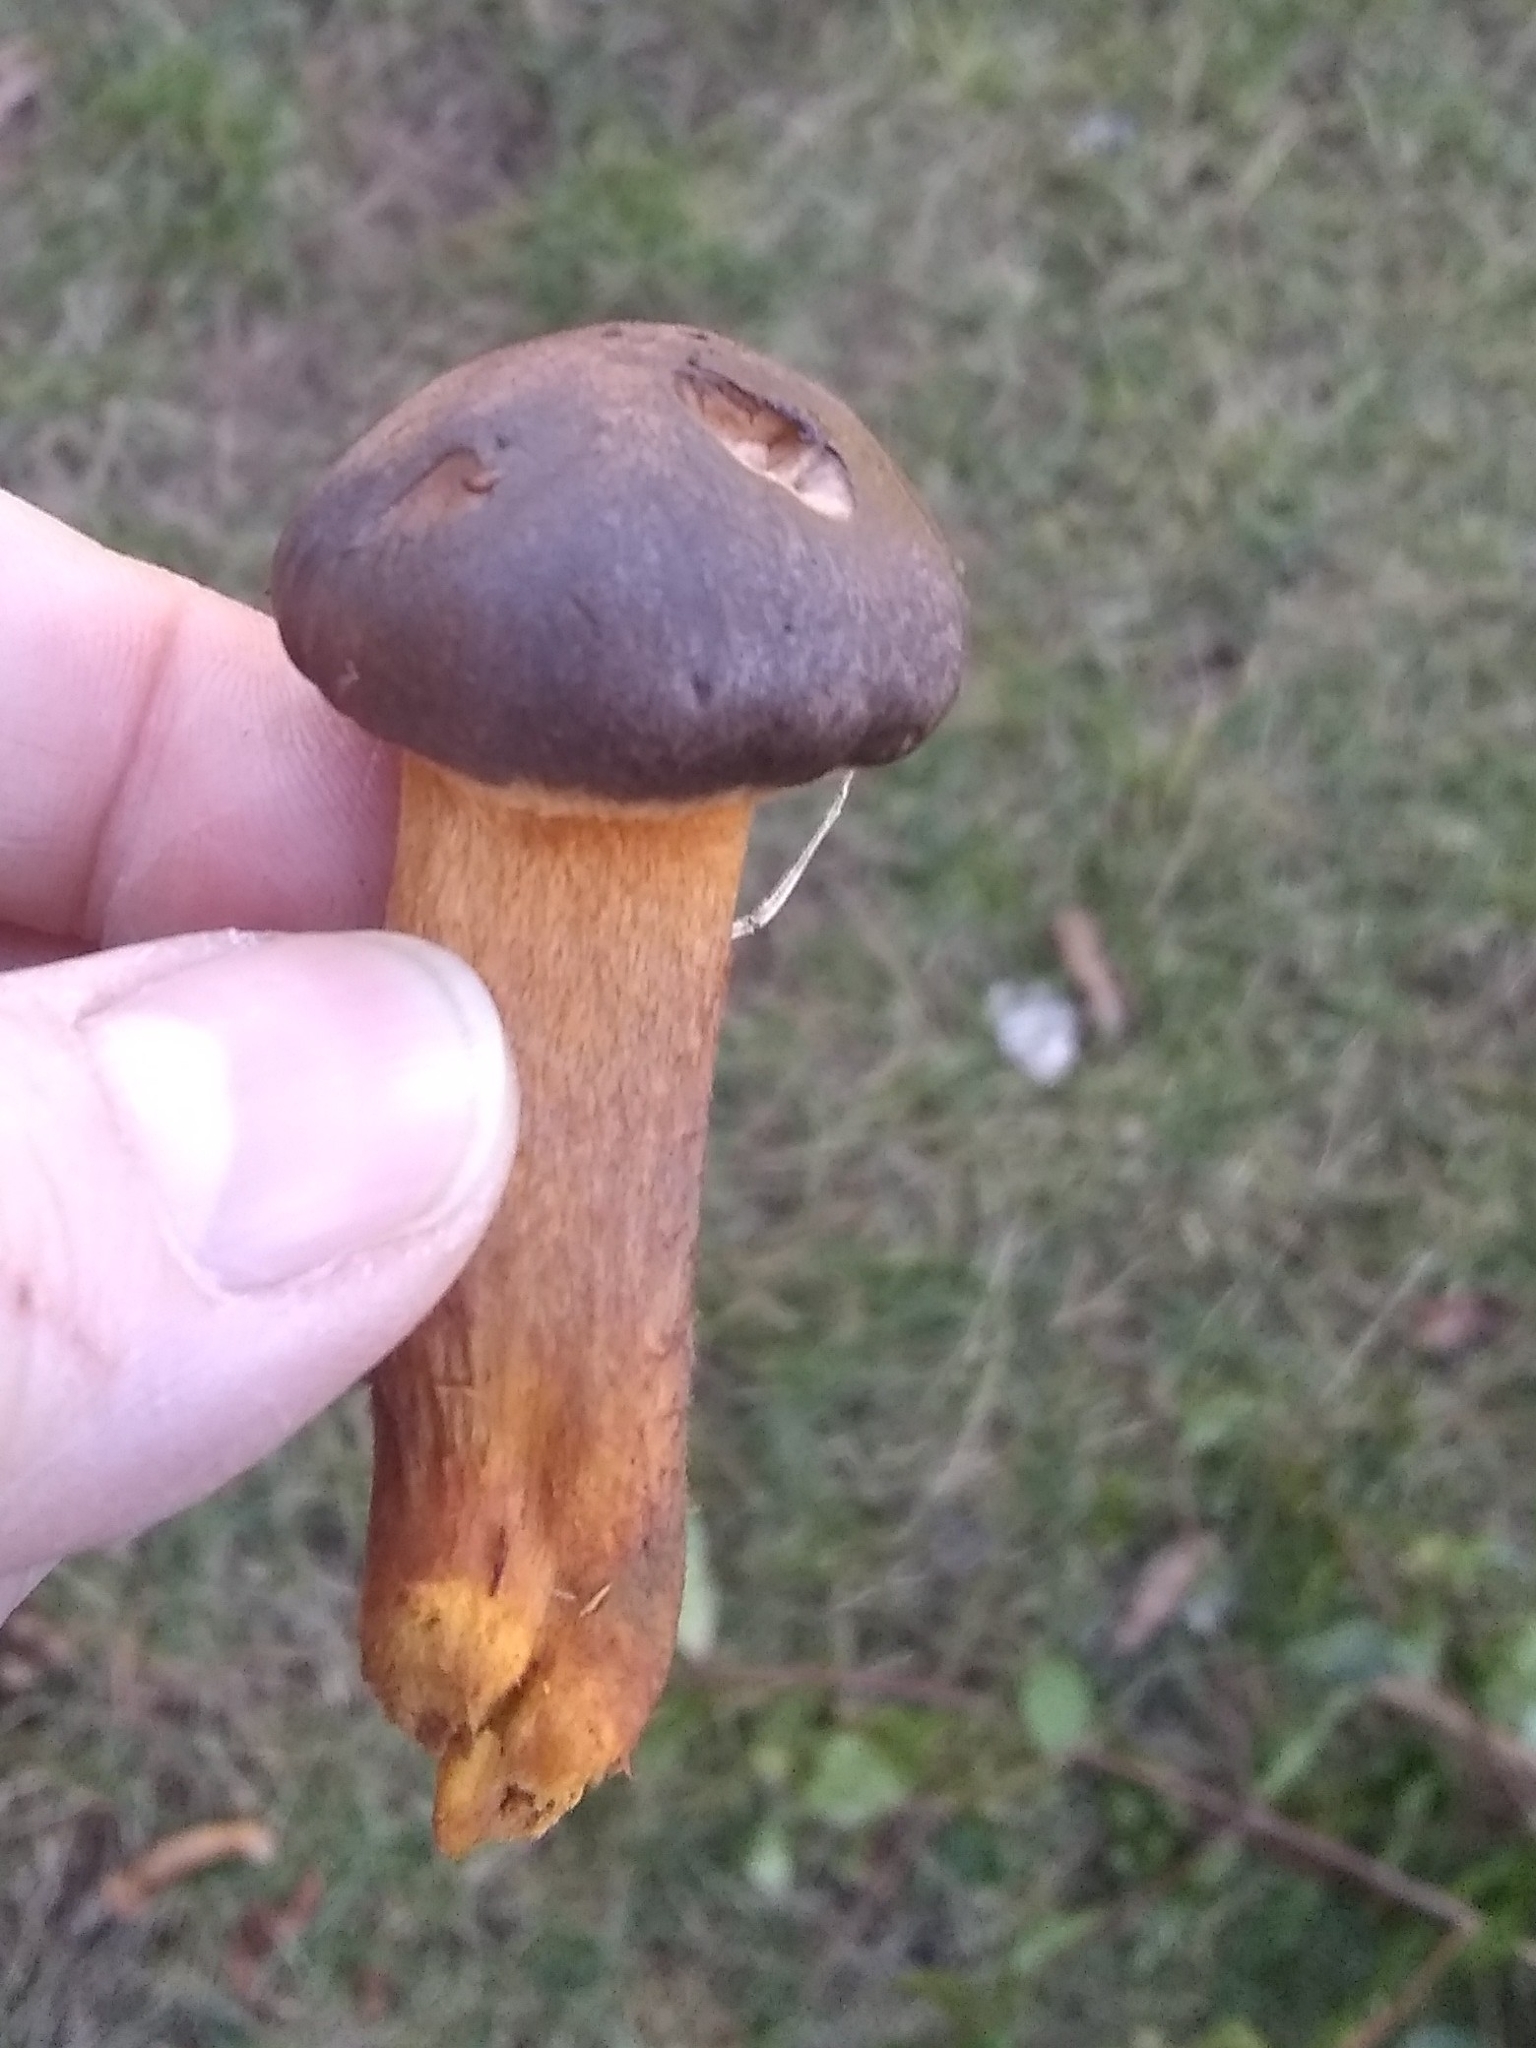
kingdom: Fungi
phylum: Basidiomycota
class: Agaricomycetes
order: Boletales
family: Gomphidiaceae
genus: Chroogomphus
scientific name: Chroogomphus vinicolor
